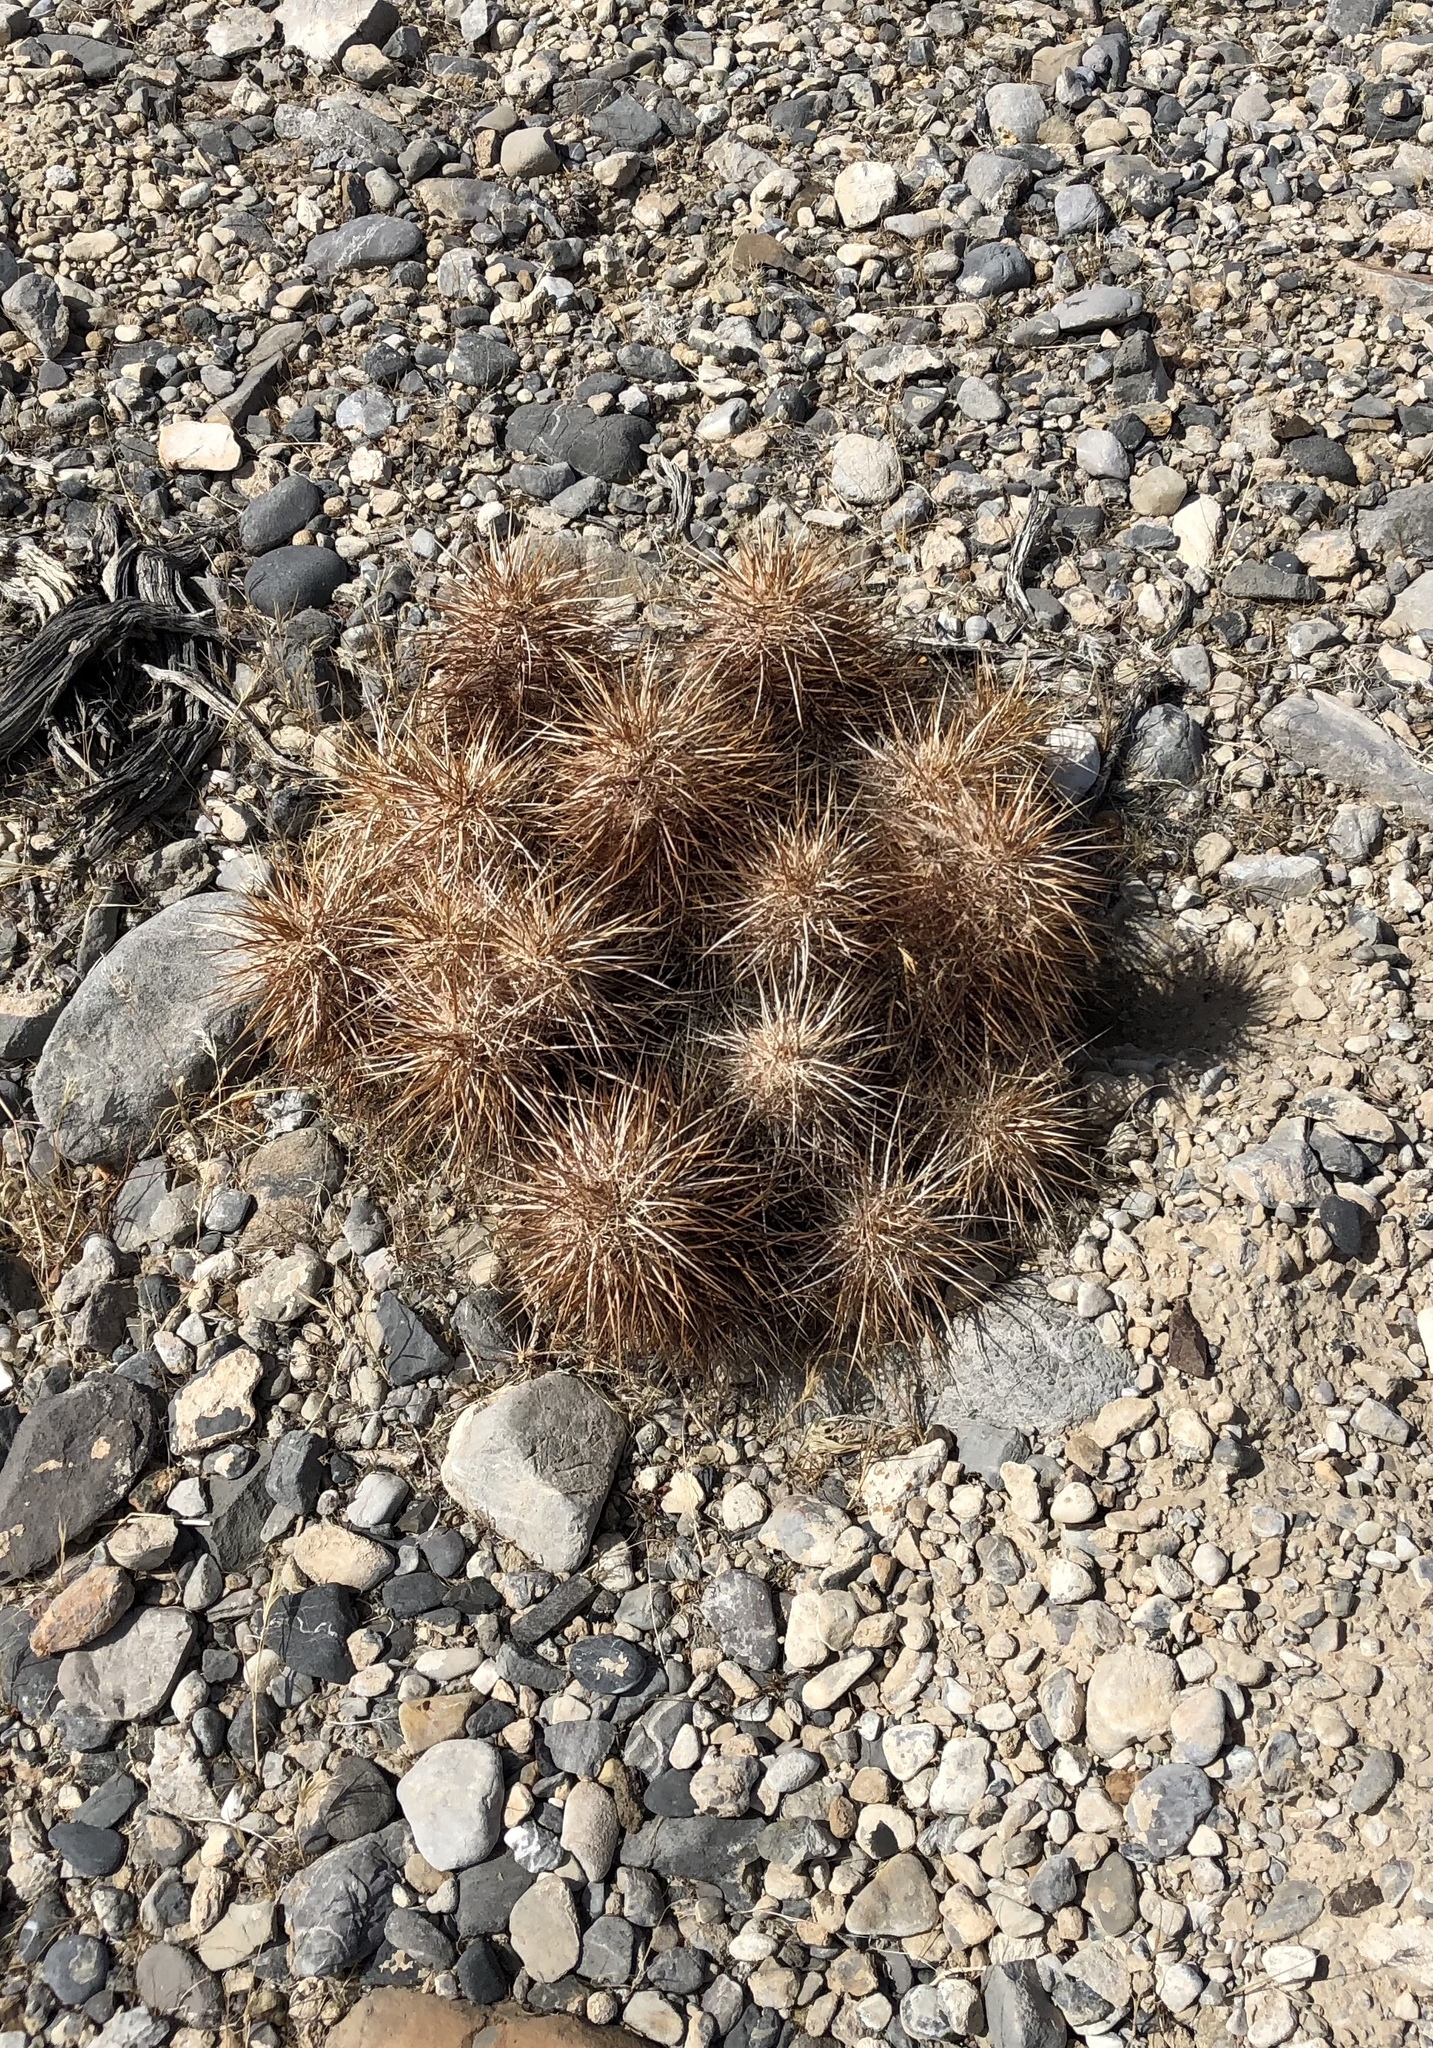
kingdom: Plantae
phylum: Tracheophyta
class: Magnoliopsida
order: Caryophyllales
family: Cactaceae
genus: Echinocereus
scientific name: Echinocereus engelmannii
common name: Engelmann's hedgehog cactus
